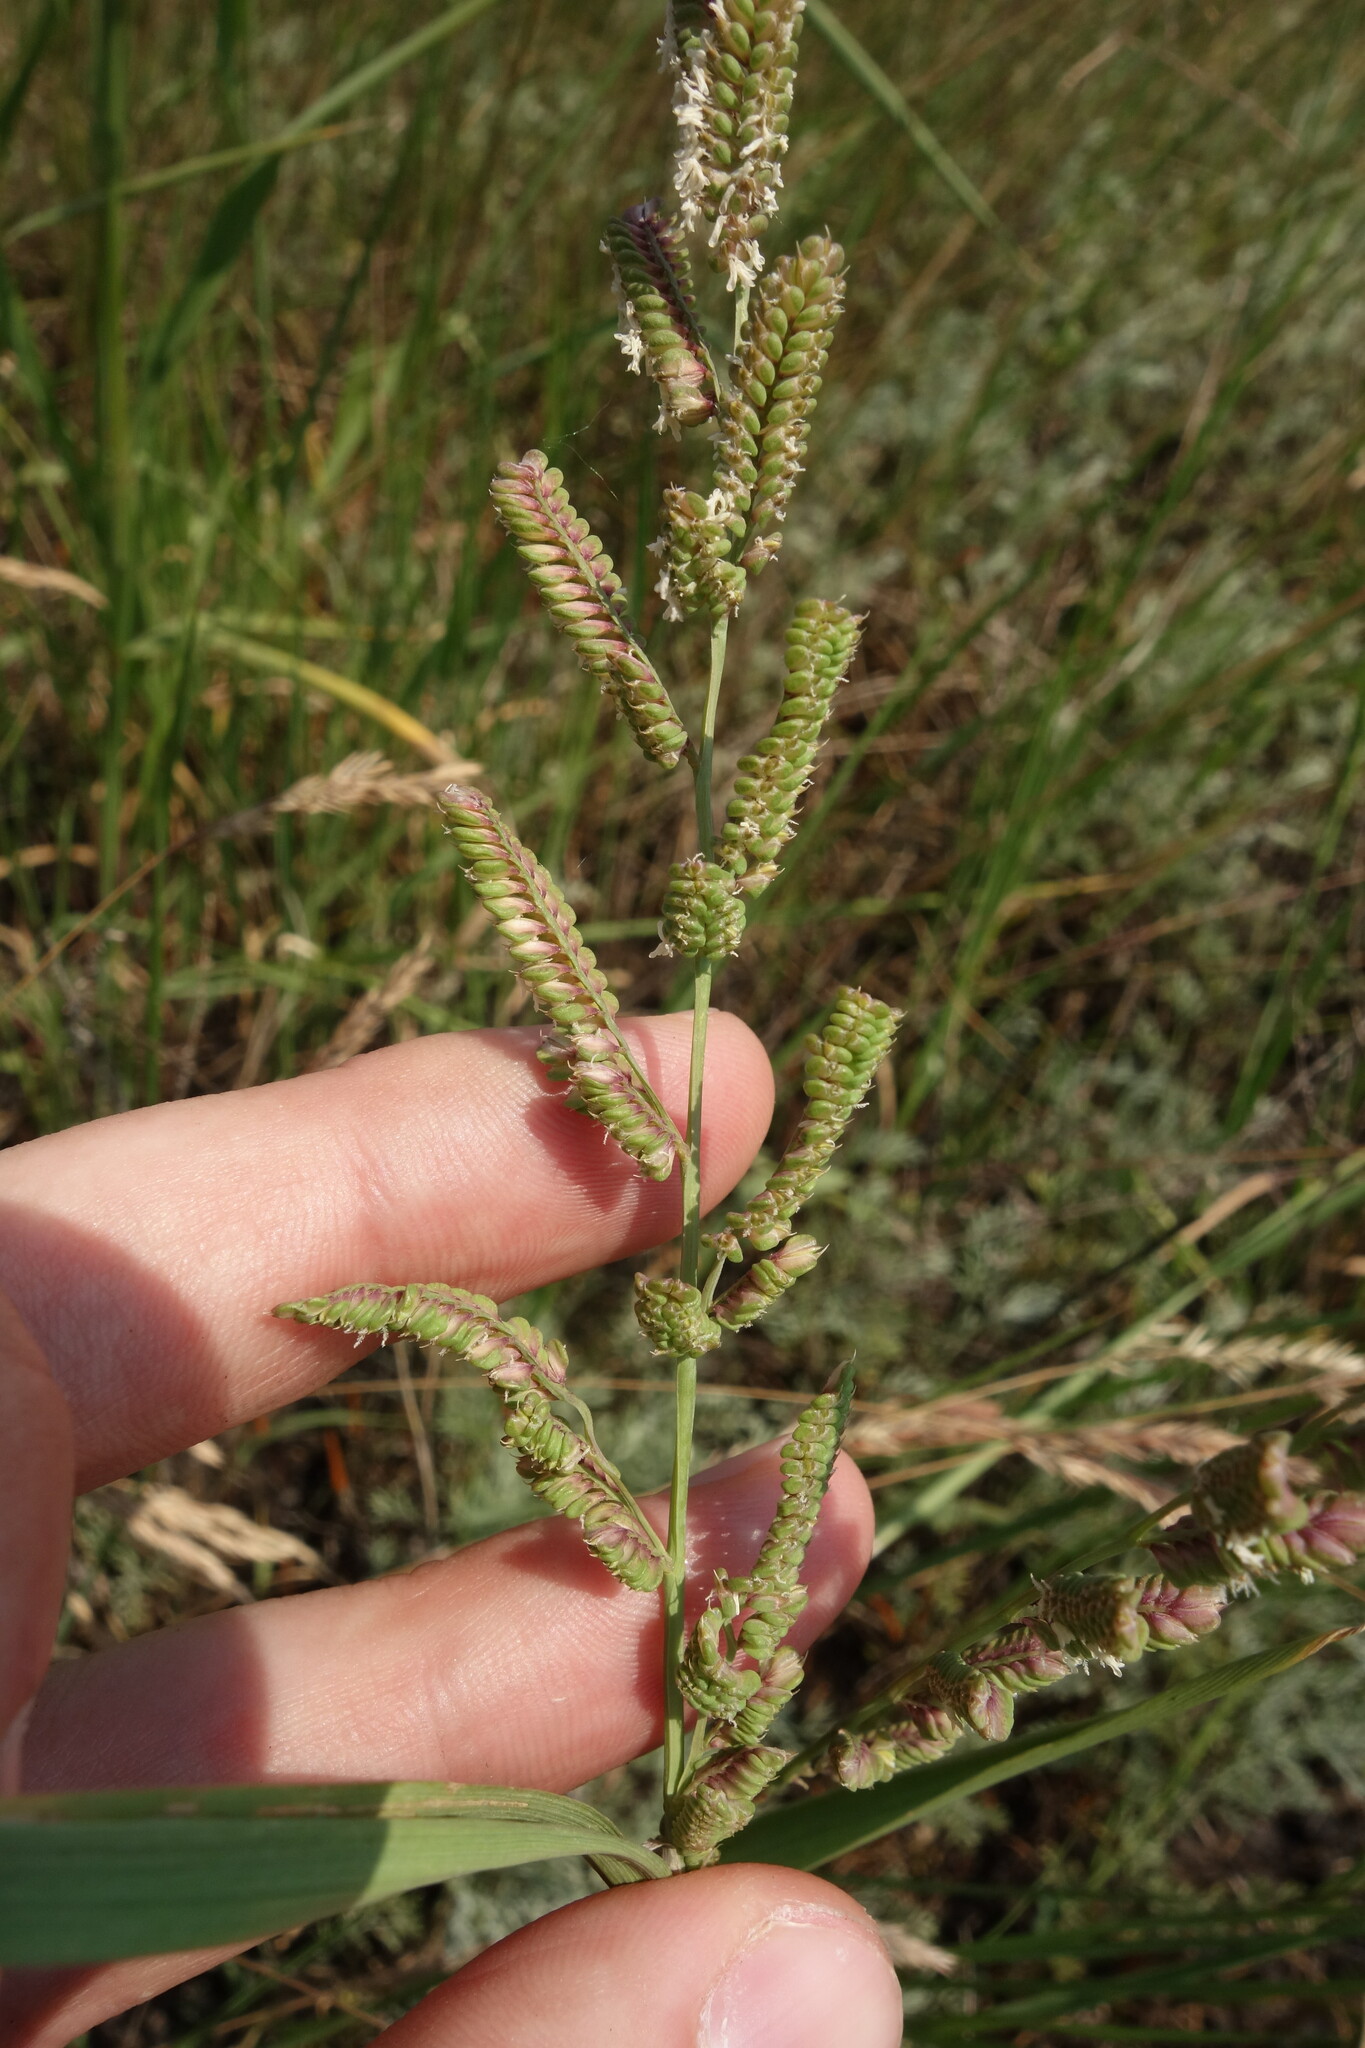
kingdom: Plantae
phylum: Tracheophyta
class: Liliopsida
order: Poales
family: Poaceae
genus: Beckmannia
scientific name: Beckmannia eruciformis
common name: European slough-grass
